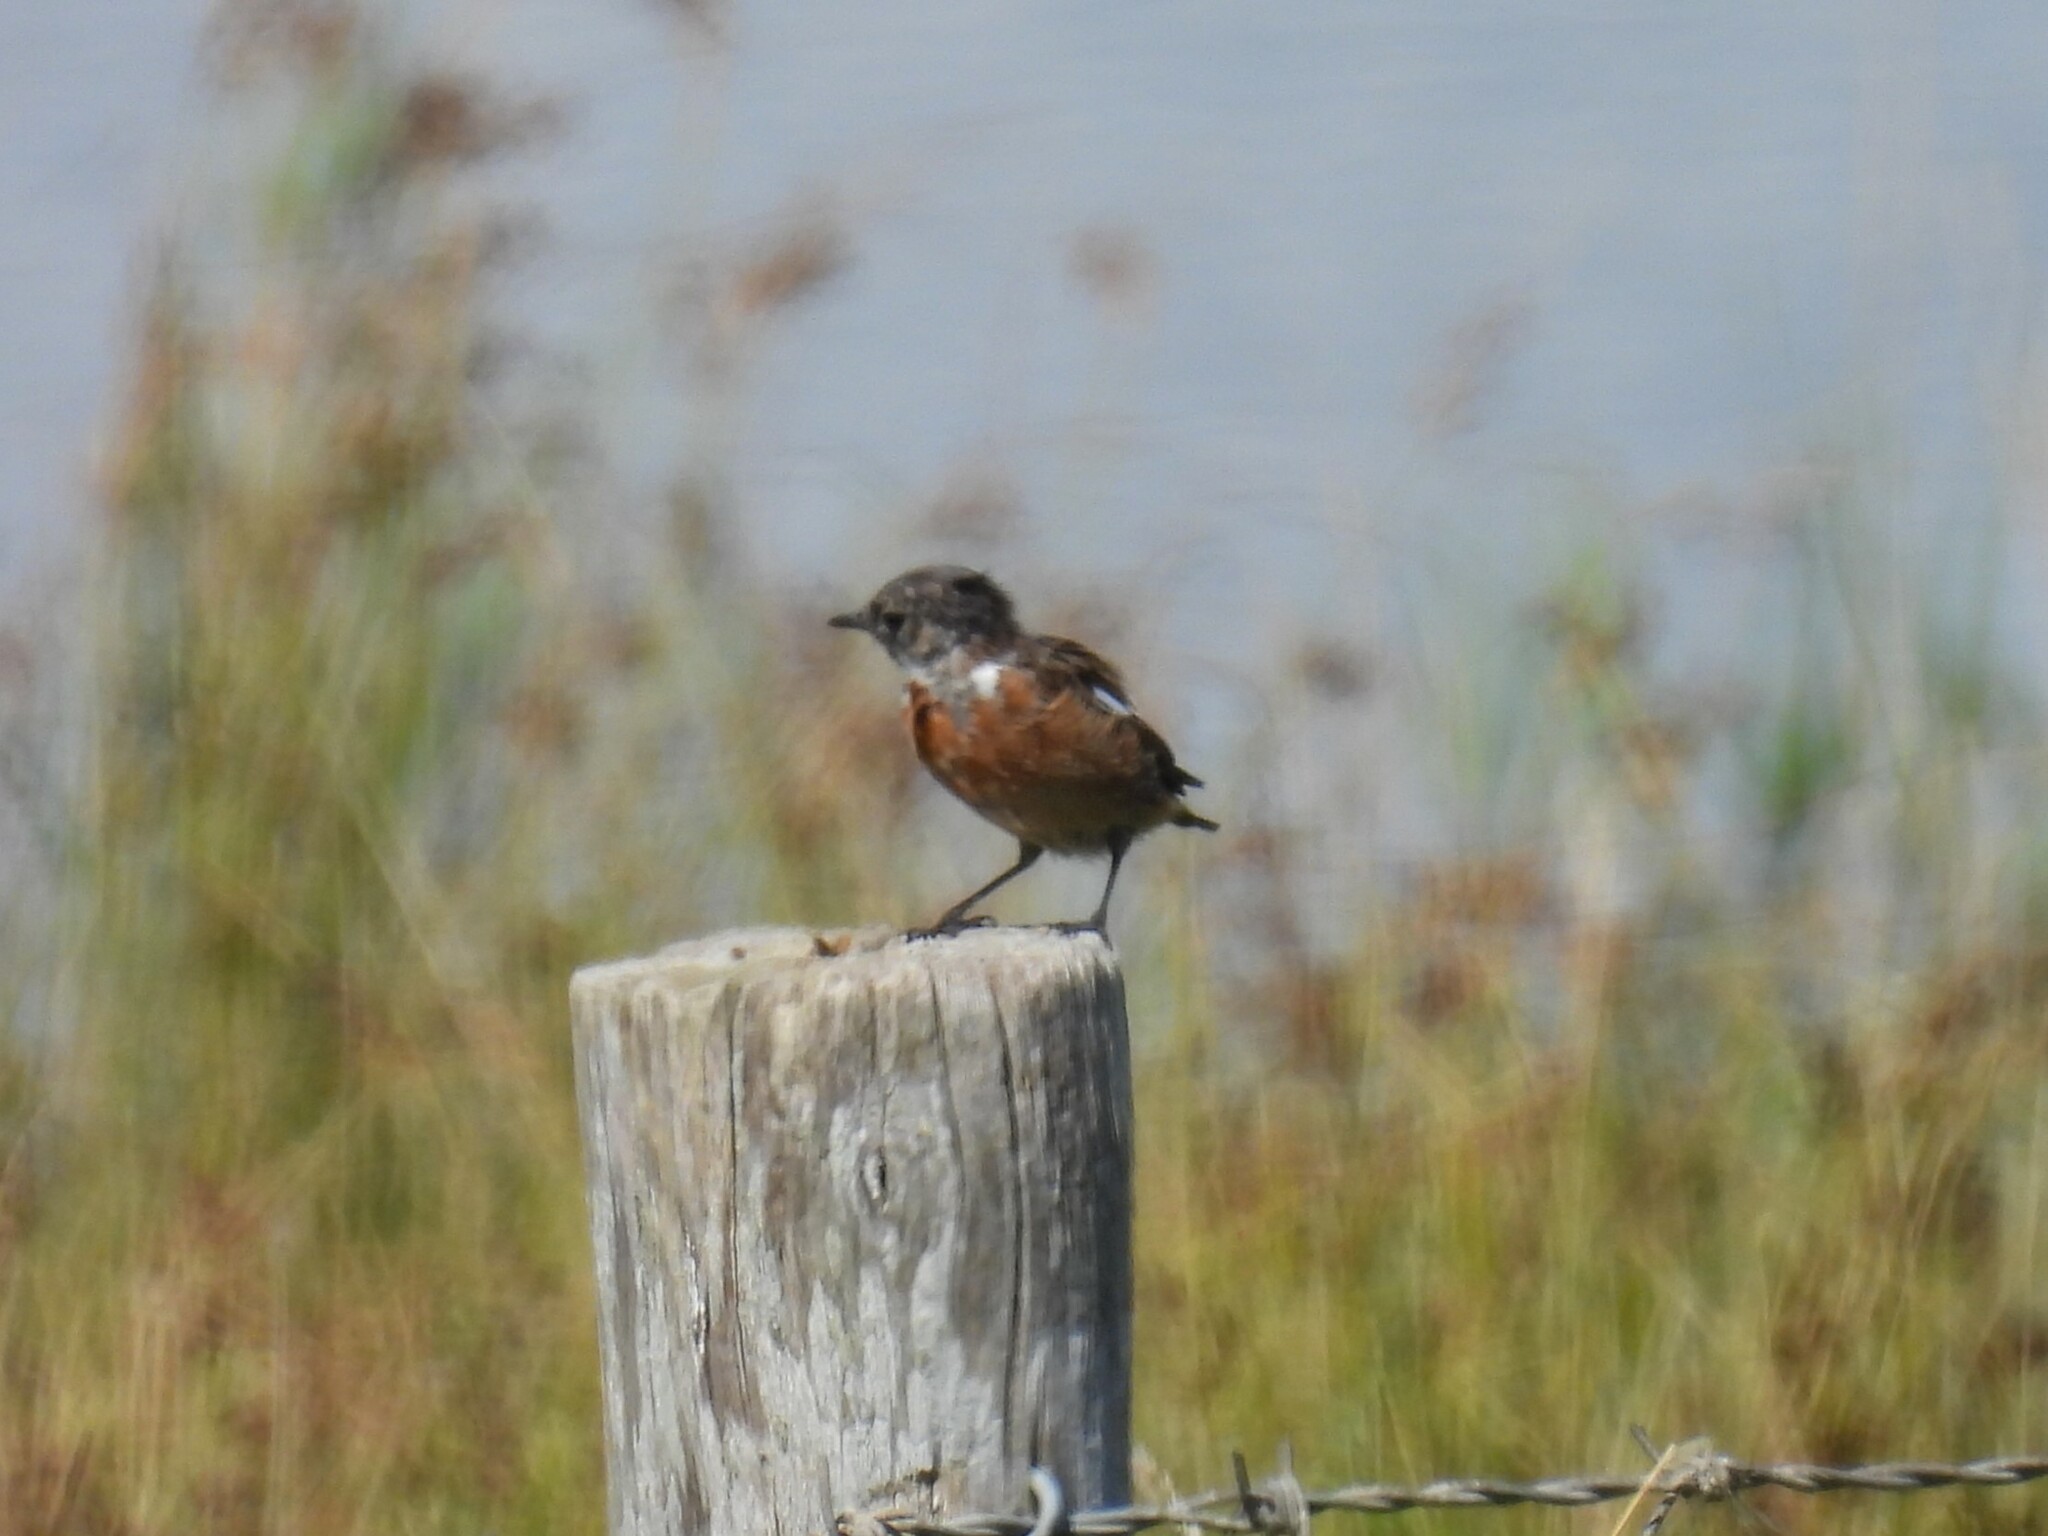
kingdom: Animalia
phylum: Chordata
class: Aves
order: Passeriformes
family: Muscicapidae
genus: Saxicola
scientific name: Saxicola rubicola
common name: European stonechat
